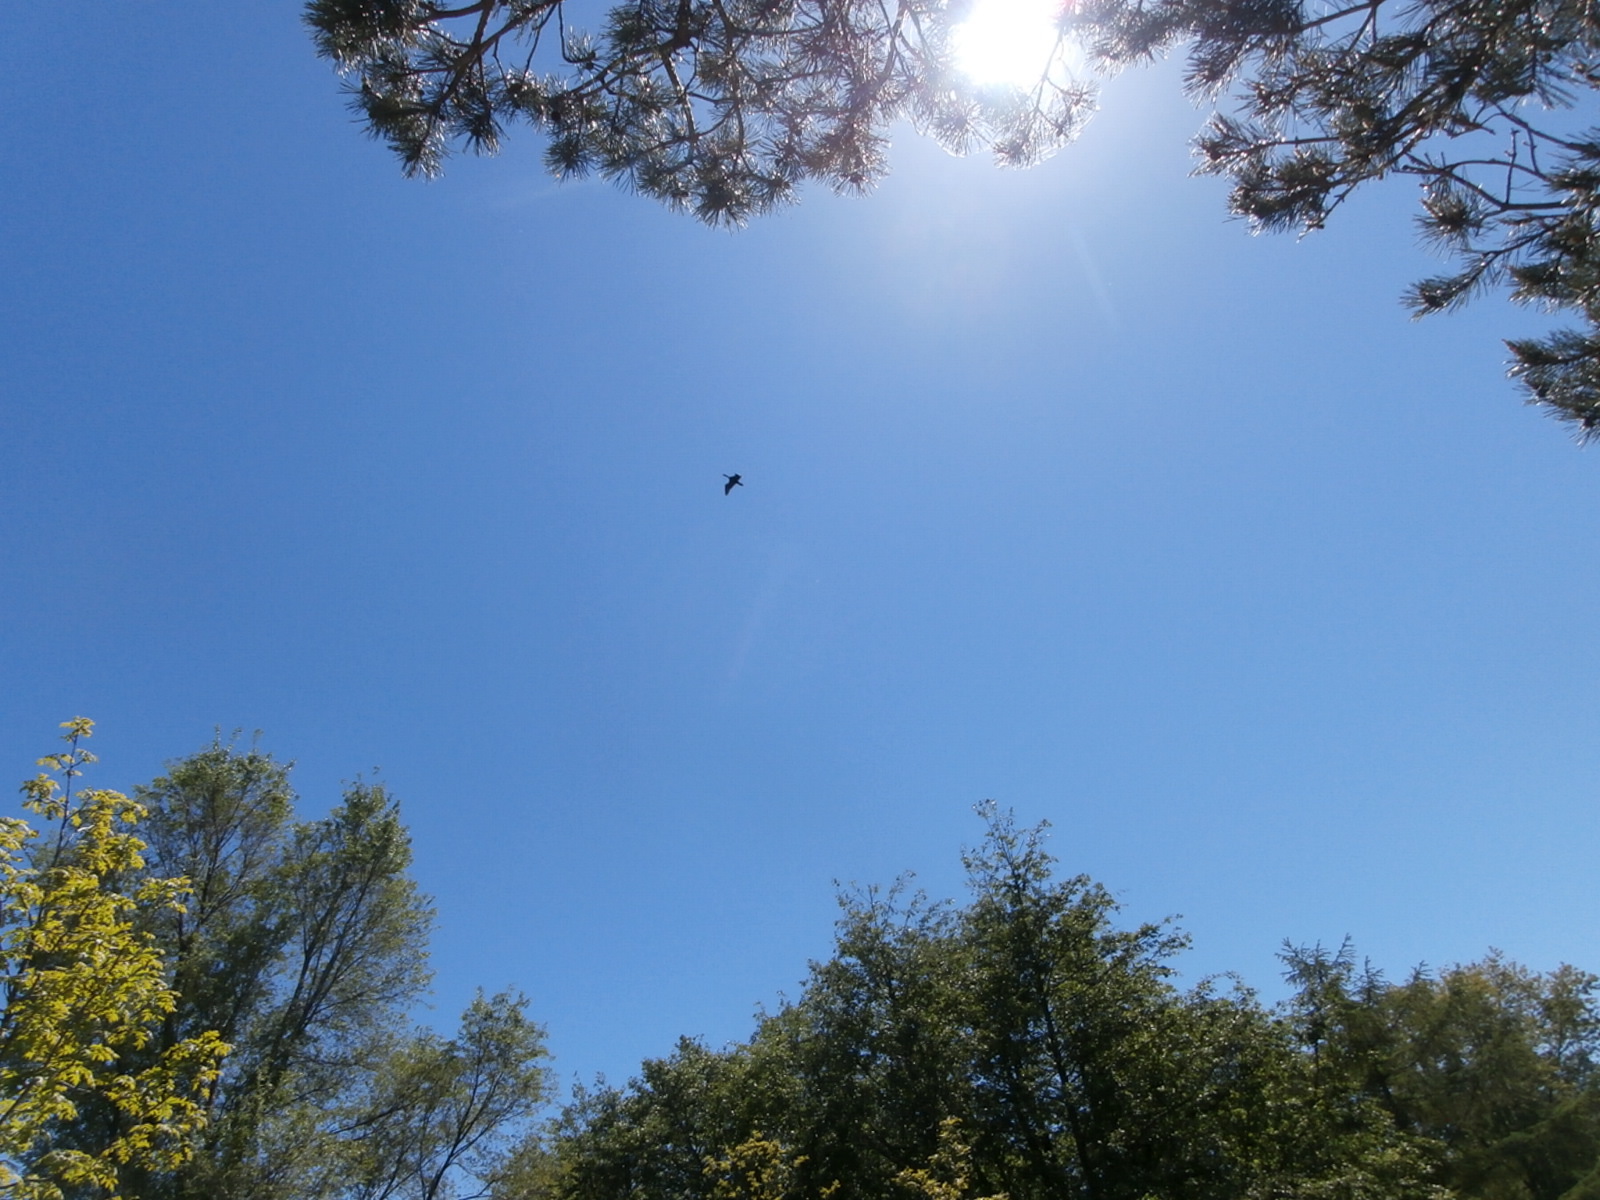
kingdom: Animalia
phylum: Chordata
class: Aves
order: Suliformes
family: Phalacrocoracidae
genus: Phalacrocorax
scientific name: Phalacrocorax auritus
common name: Double-crested cormorant
